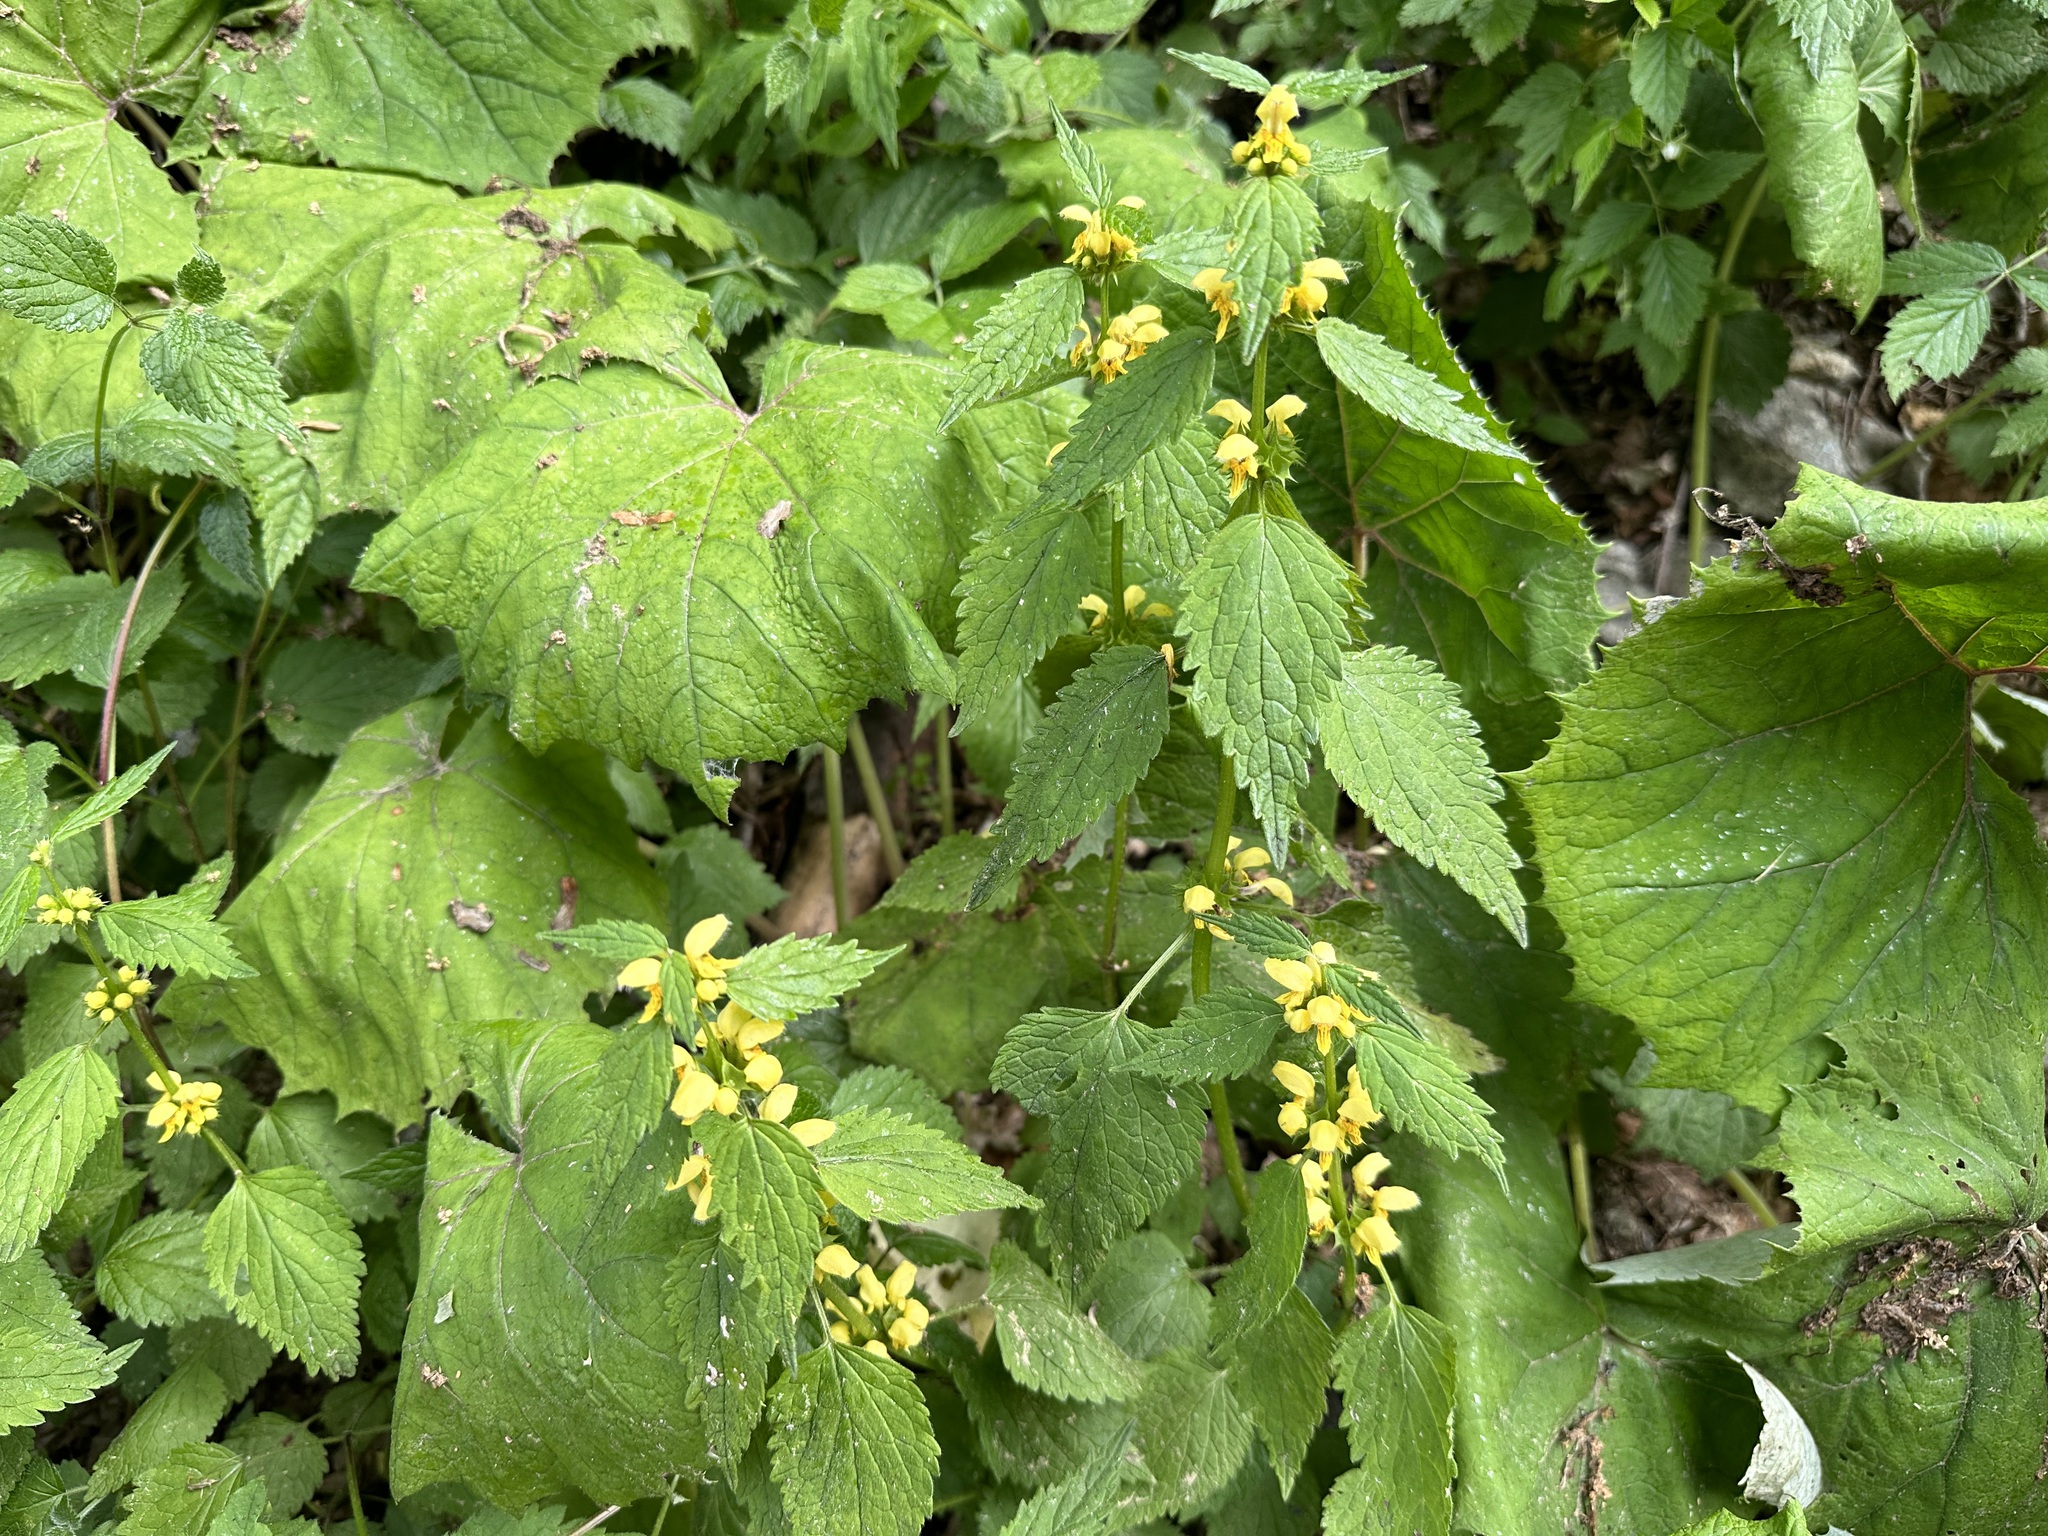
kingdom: Plantae
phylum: Tracheophyta
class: Magnoliopsida
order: Lamiales
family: Lamiaceae
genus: Lamium
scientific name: Lamium galeobdolon
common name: Yellow archangel
